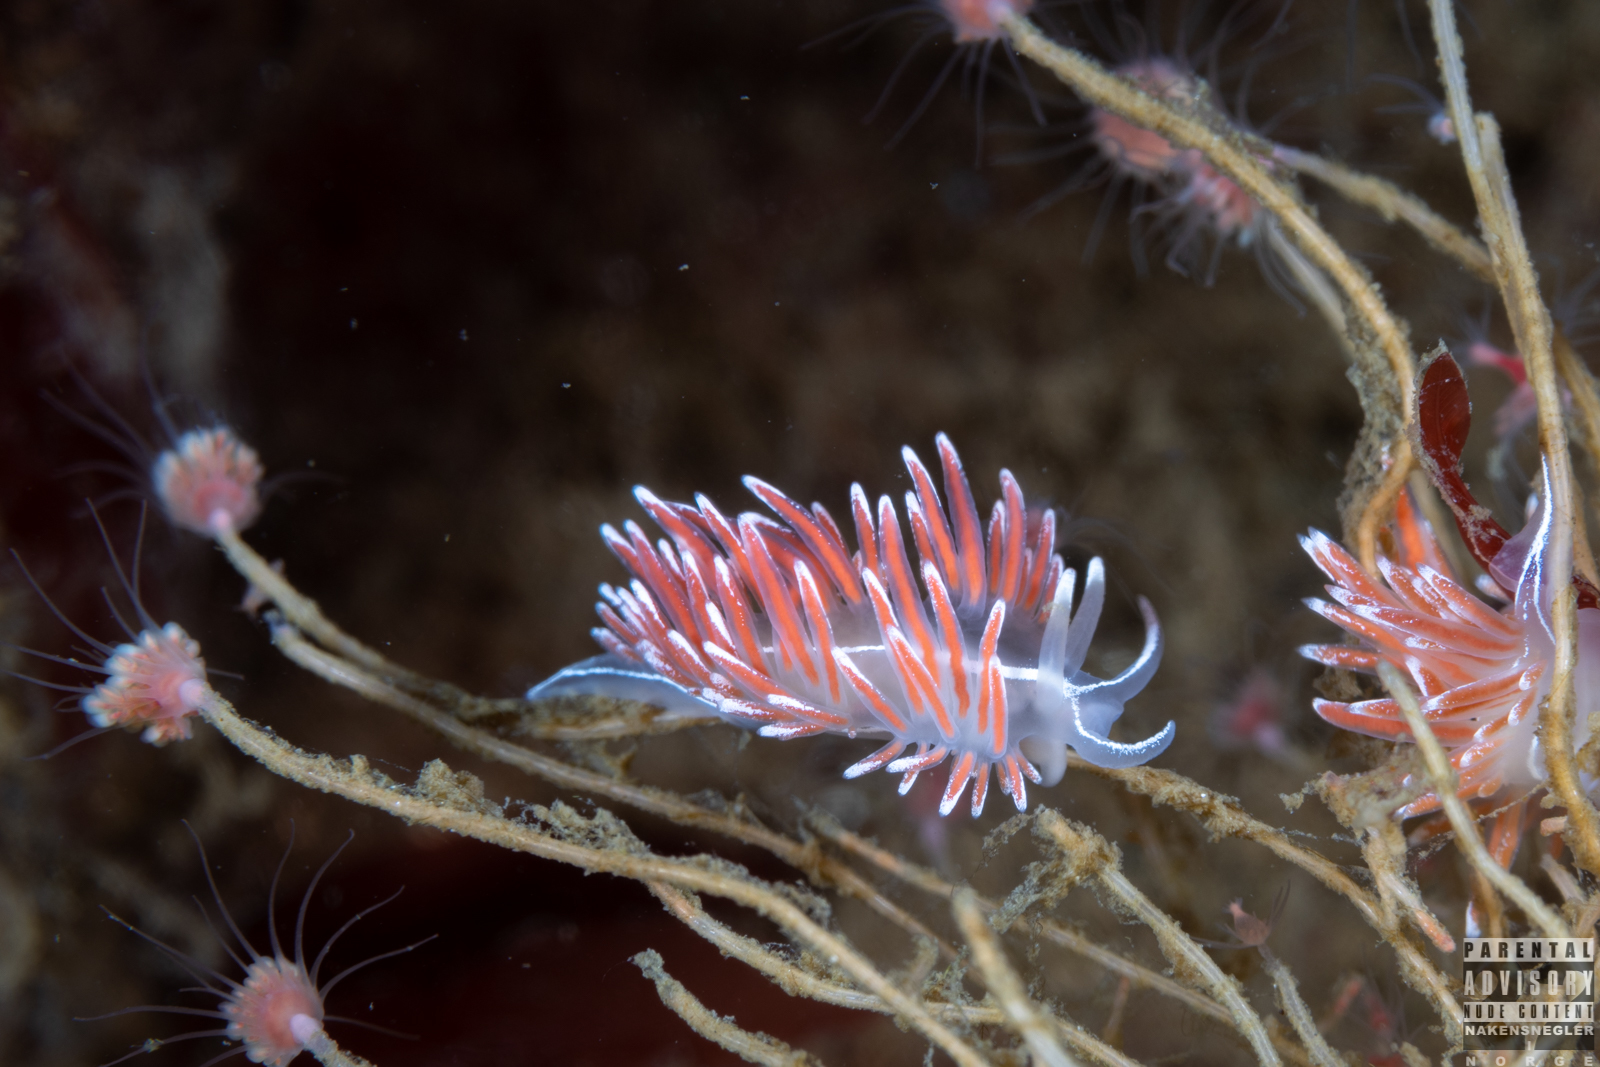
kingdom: Animalia
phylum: Mollusca
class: Gastropoda
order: Nudibranchia
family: Coryphellidae
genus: Coryphella
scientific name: Coryphella lineata
